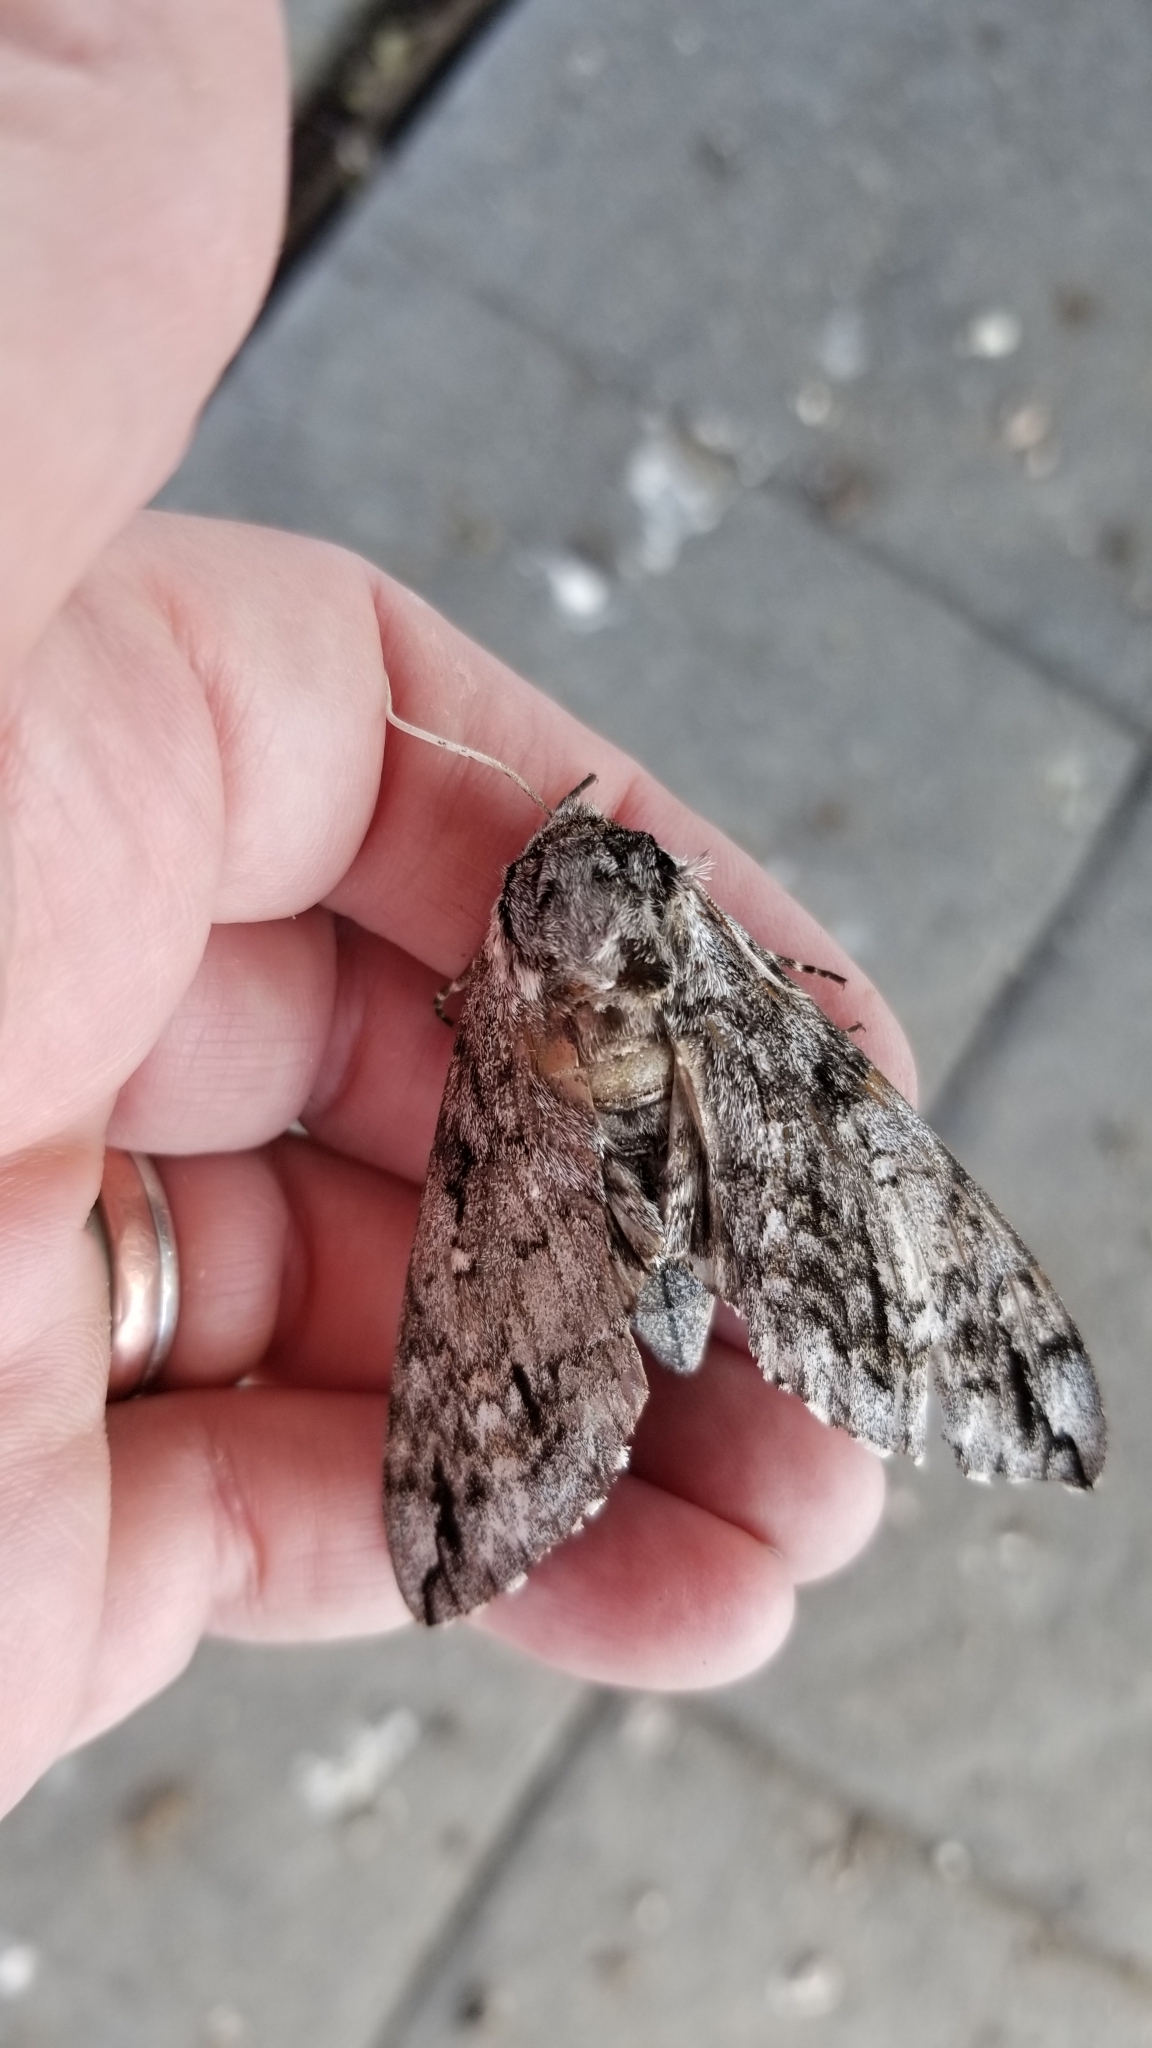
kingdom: Animalia
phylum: Arthropoda
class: Insecta
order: Lepidoptera
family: Sphingidae
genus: Ceratomia
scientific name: Ceratomia undulosa
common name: Waved sphinx
